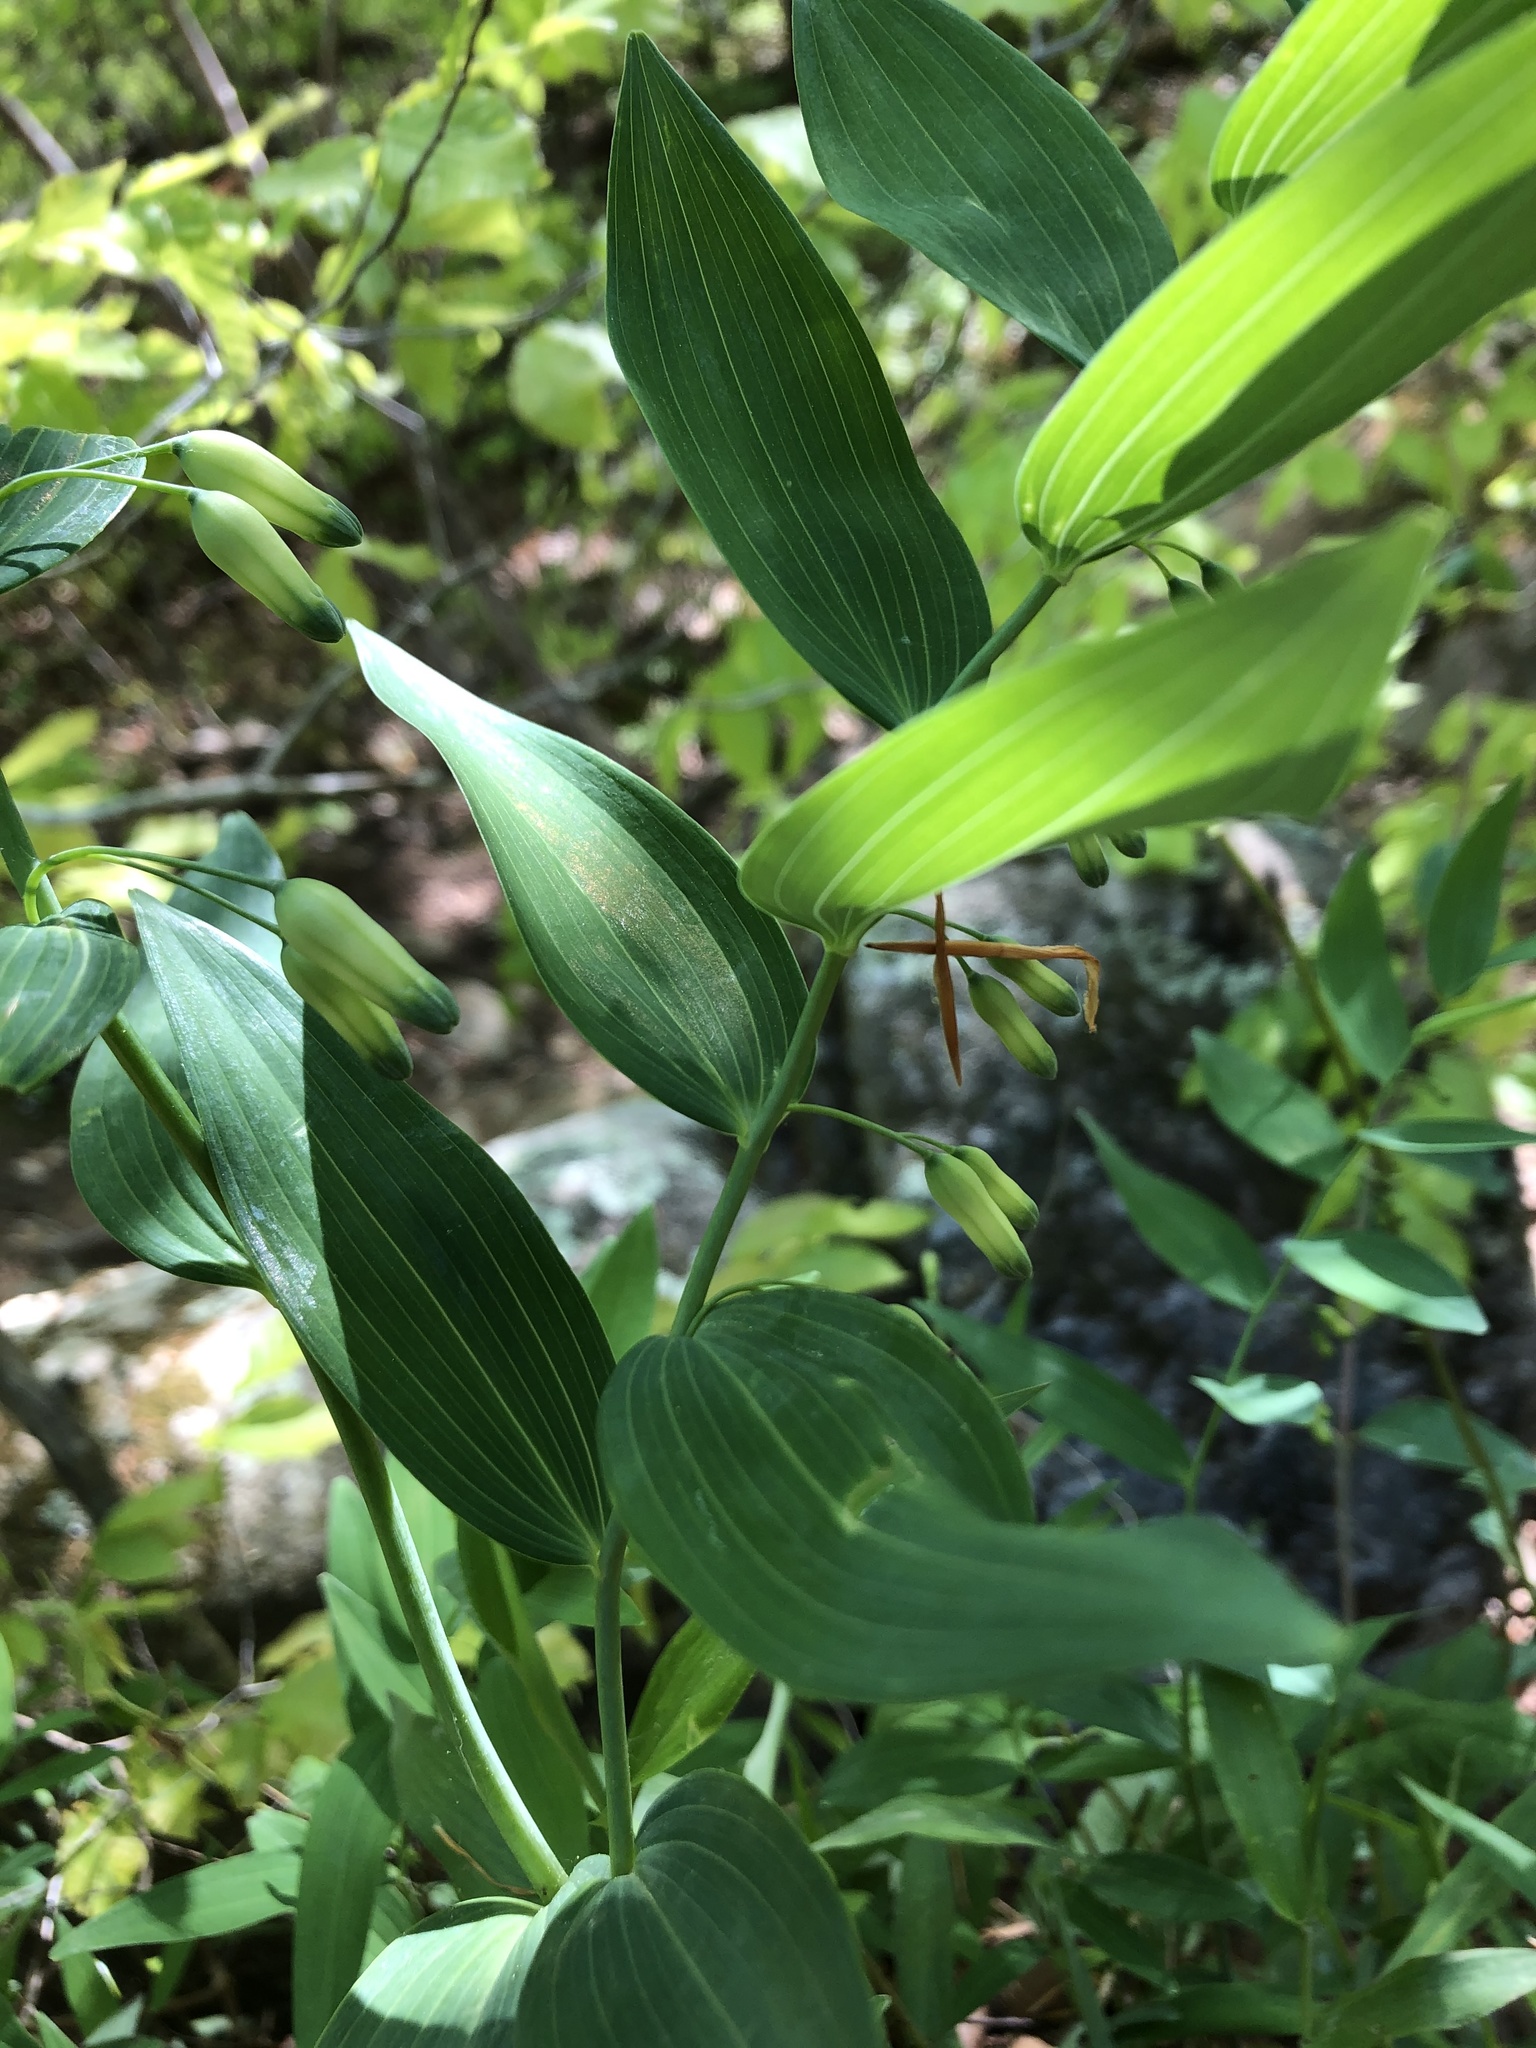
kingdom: Plantae
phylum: Tracheophyta
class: Liliopsida
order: Asparagales
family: Asparagaceae
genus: Polygonatum
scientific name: Polygonatum biflorum
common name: American solomon's-seal
